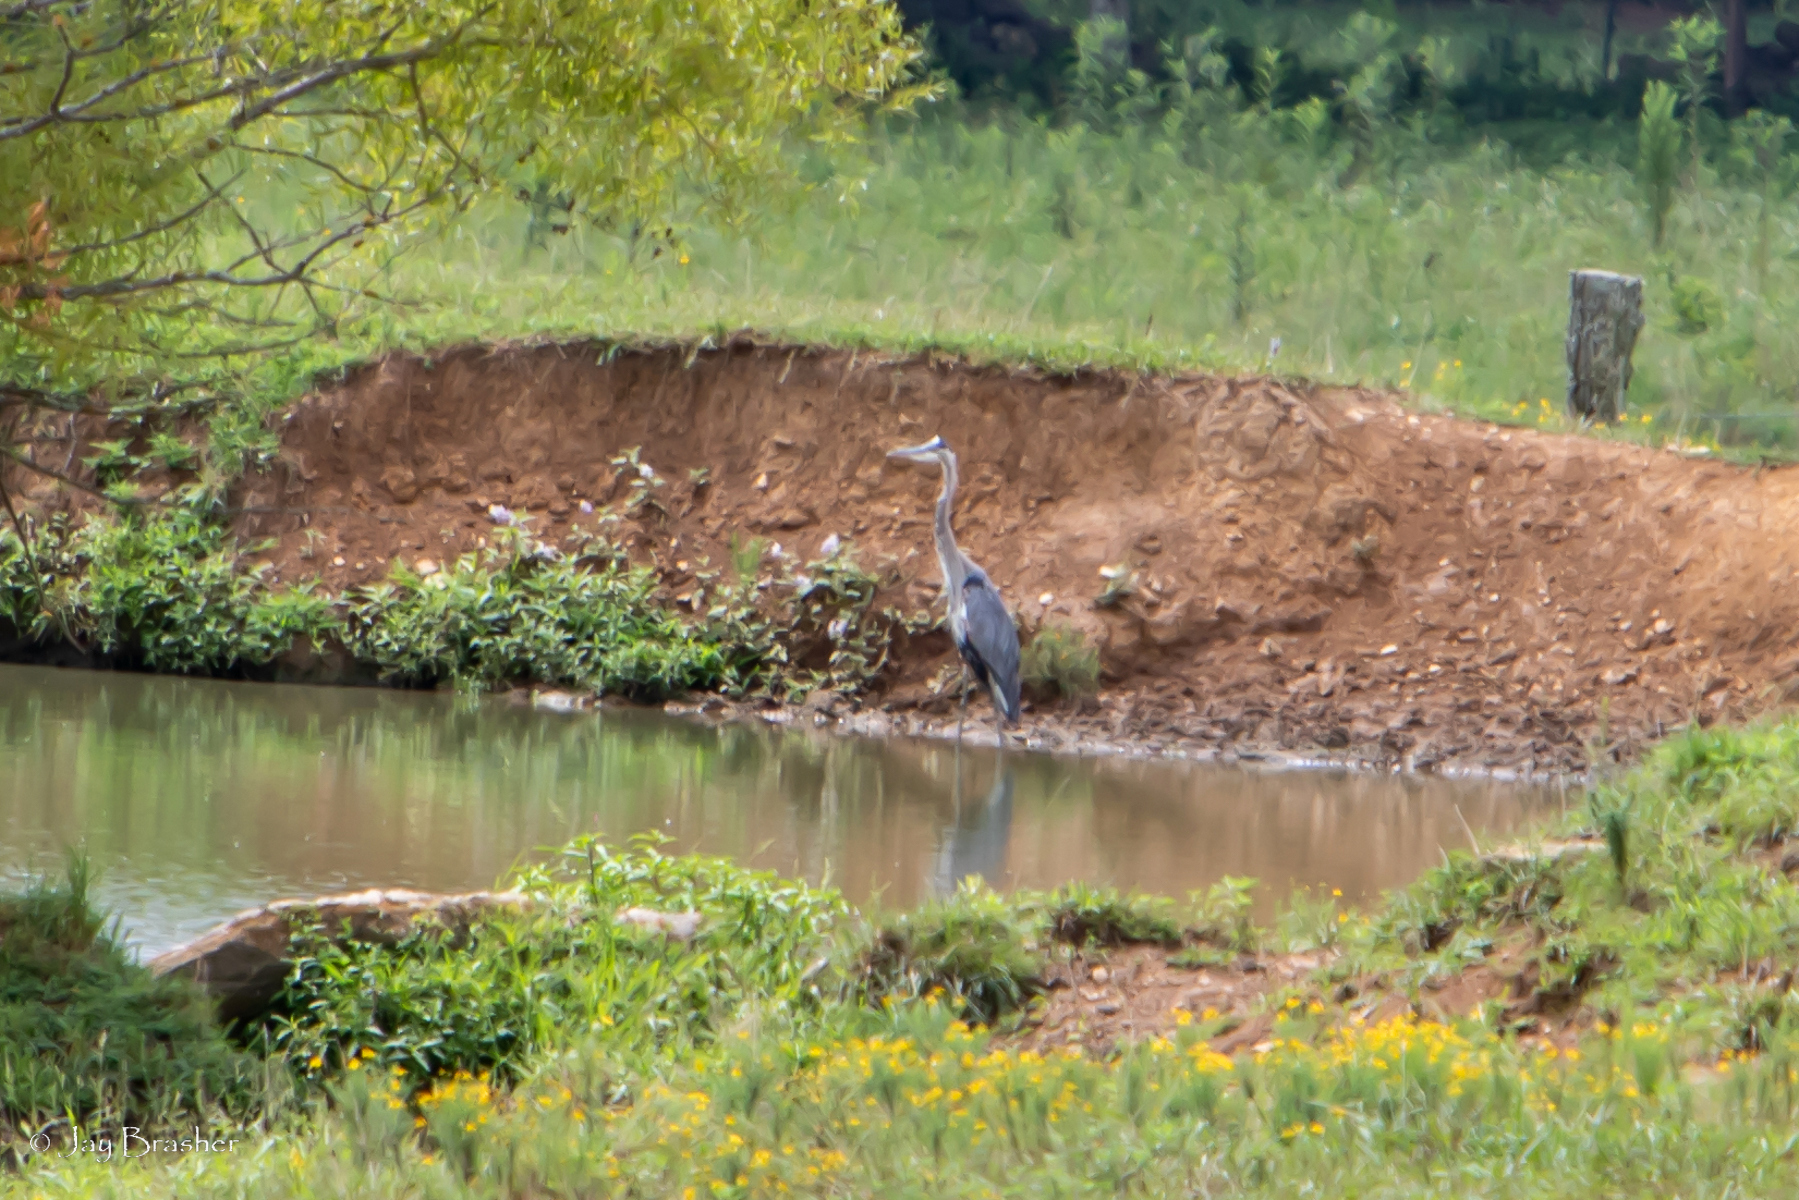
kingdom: Animalia
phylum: Chordata
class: Aves
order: Pelecaniformes
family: Ardeidae
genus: Ardea
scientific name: Ardea herodias
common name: Great blue heron
